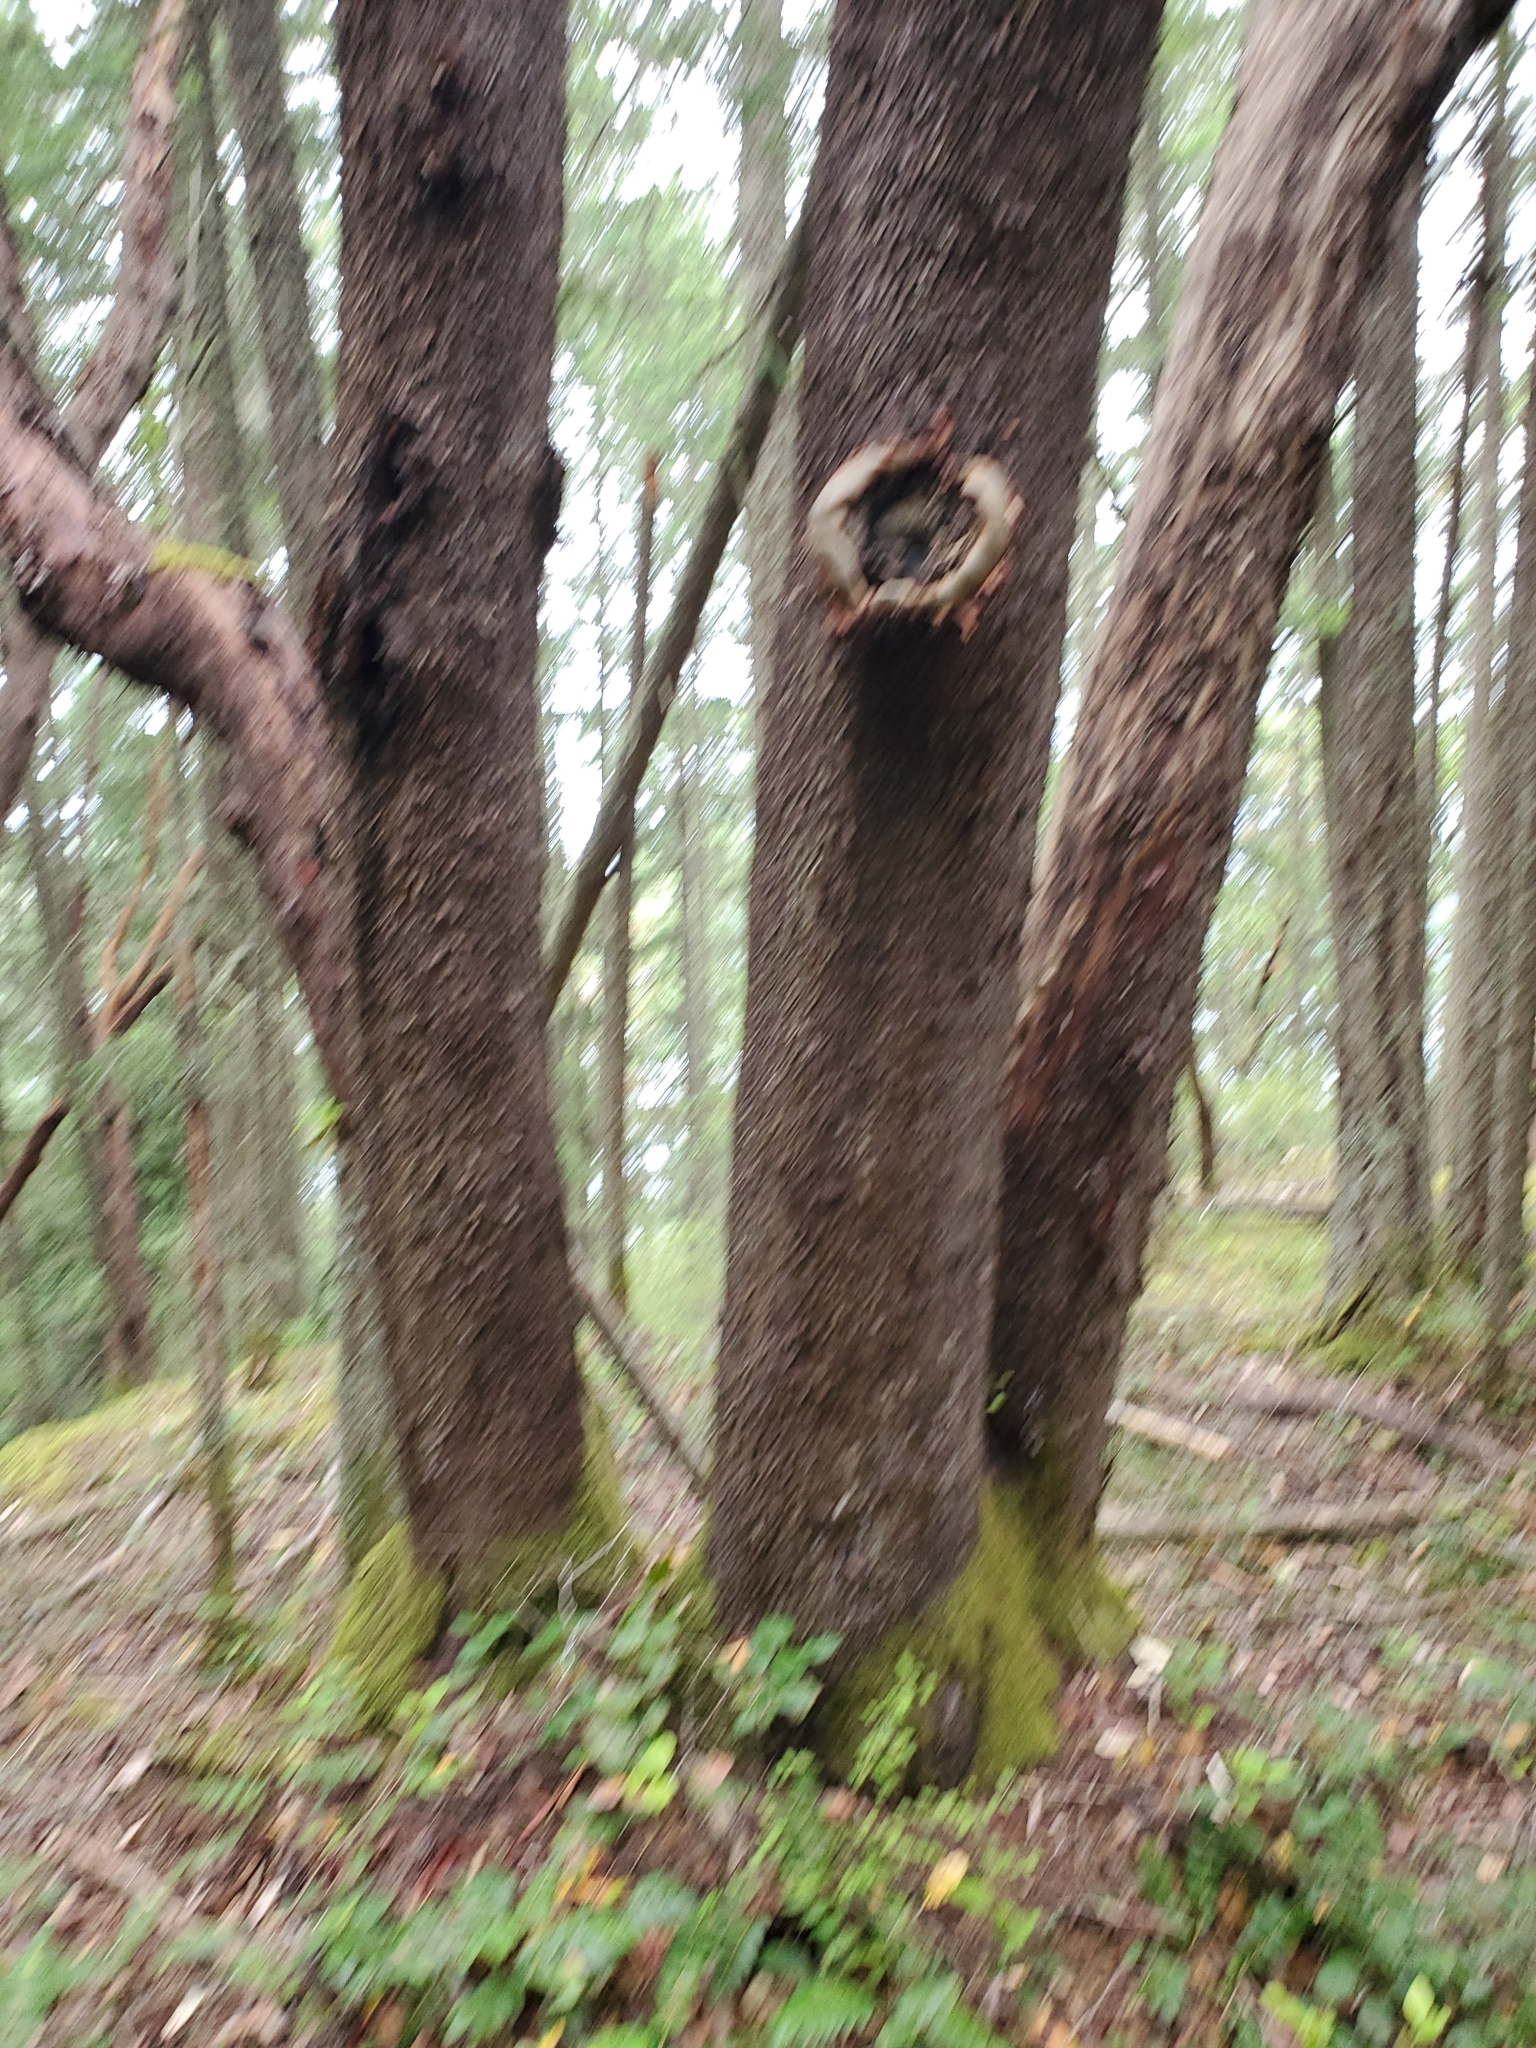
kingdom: Plantae
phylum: Tracheophyta
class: Magnoliopsida
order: Ericales
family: Ericaceae
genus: Arbutus
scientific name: Arbutus menziesii
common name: Pacific madrone
